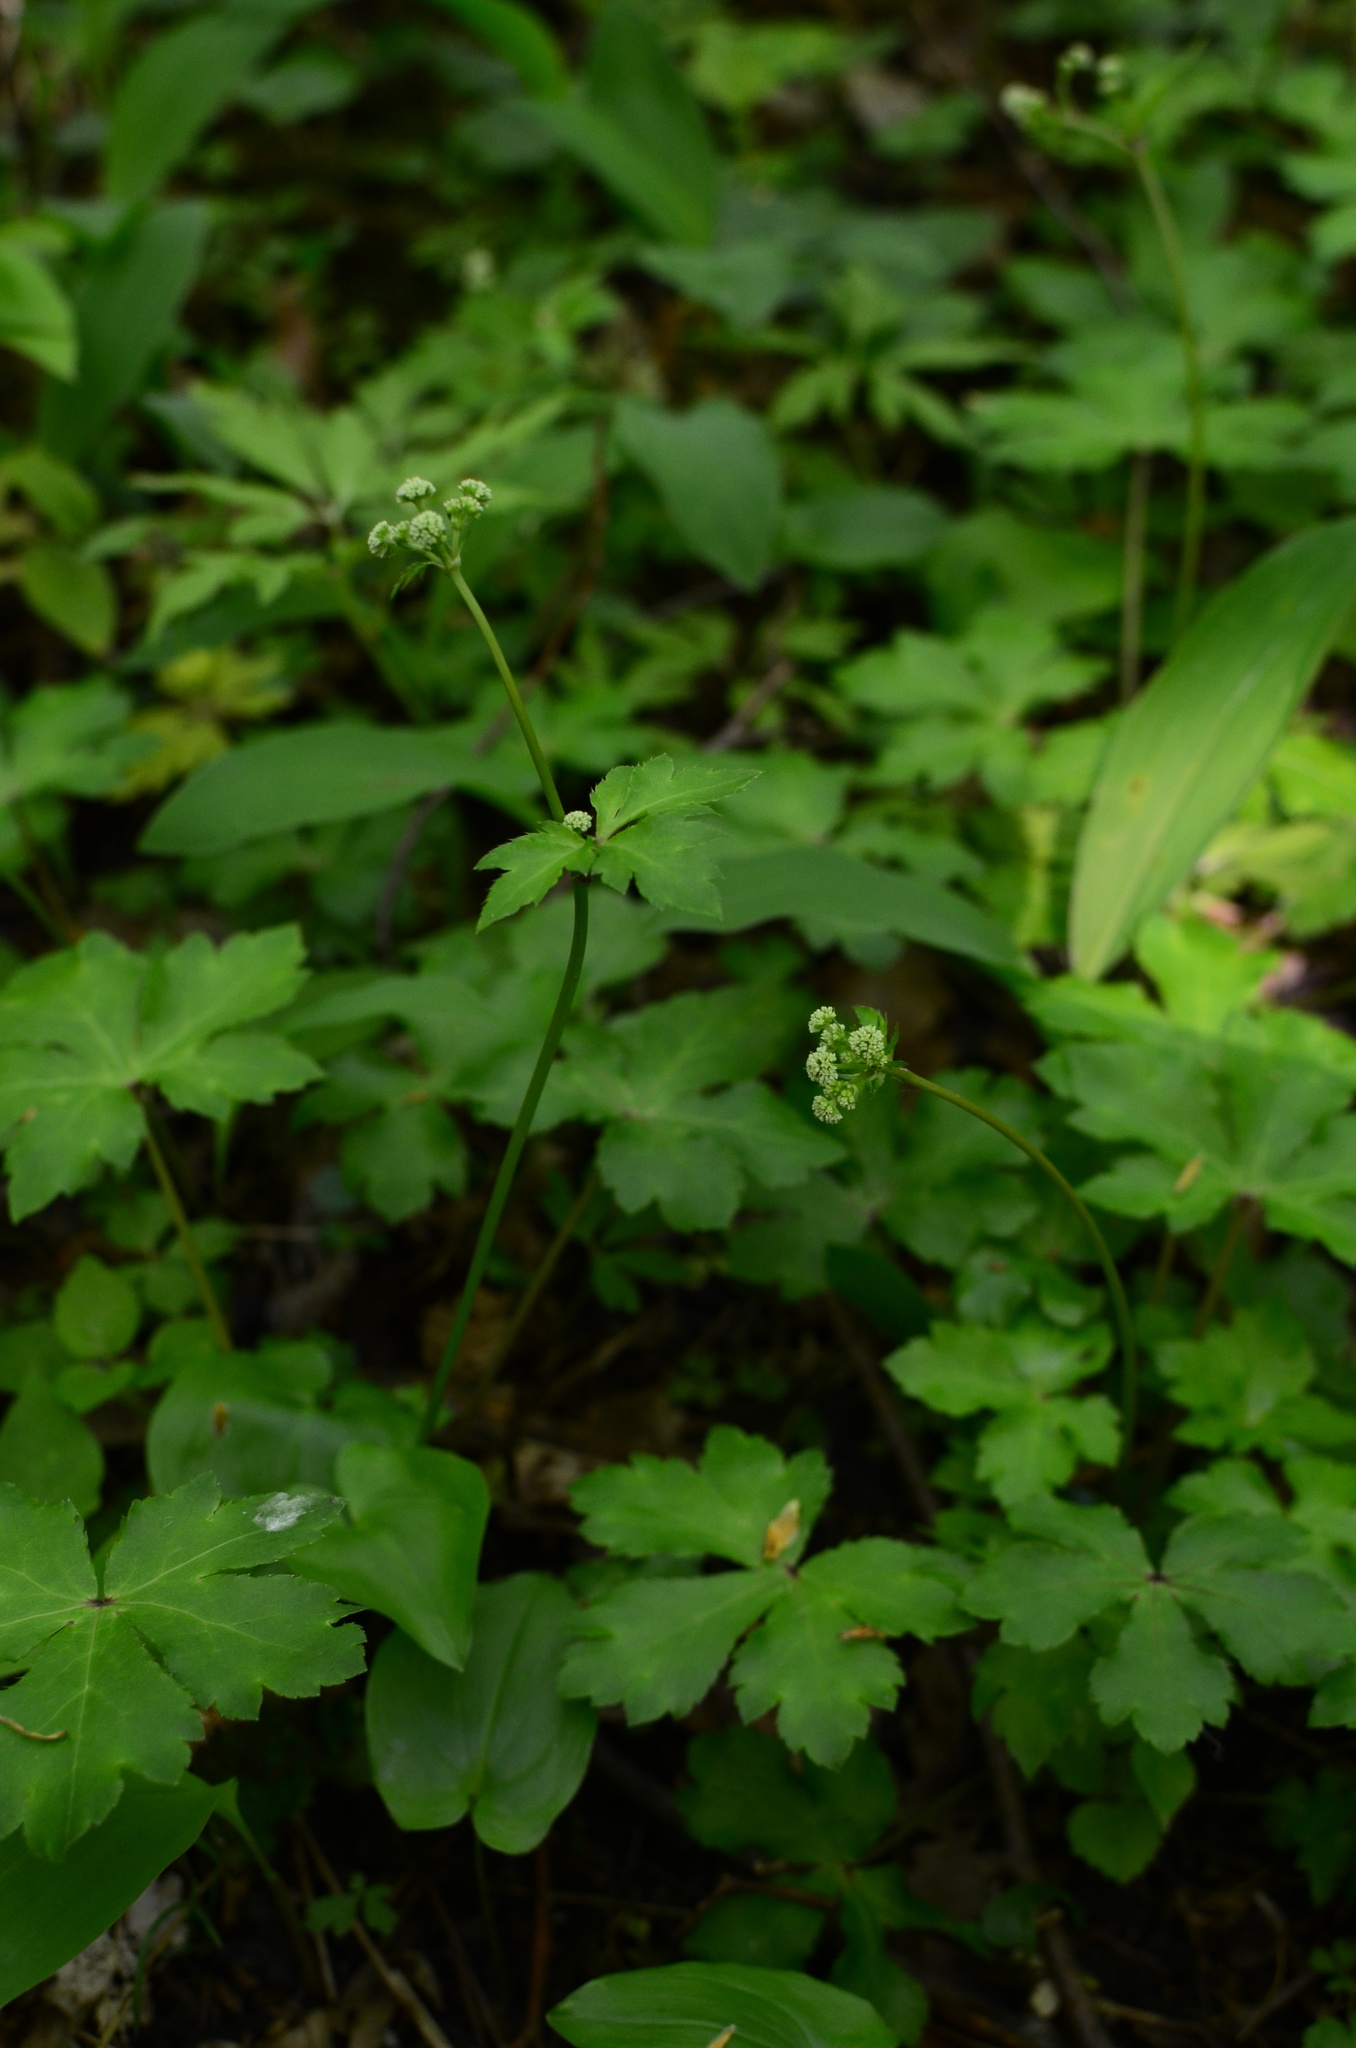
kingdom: Plantae
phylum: Tracheophyta
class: Magnoliopsida
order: Apiales
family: Apiaceae
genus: Sanicula
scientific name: Sanicula europaea
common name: Sanicle
